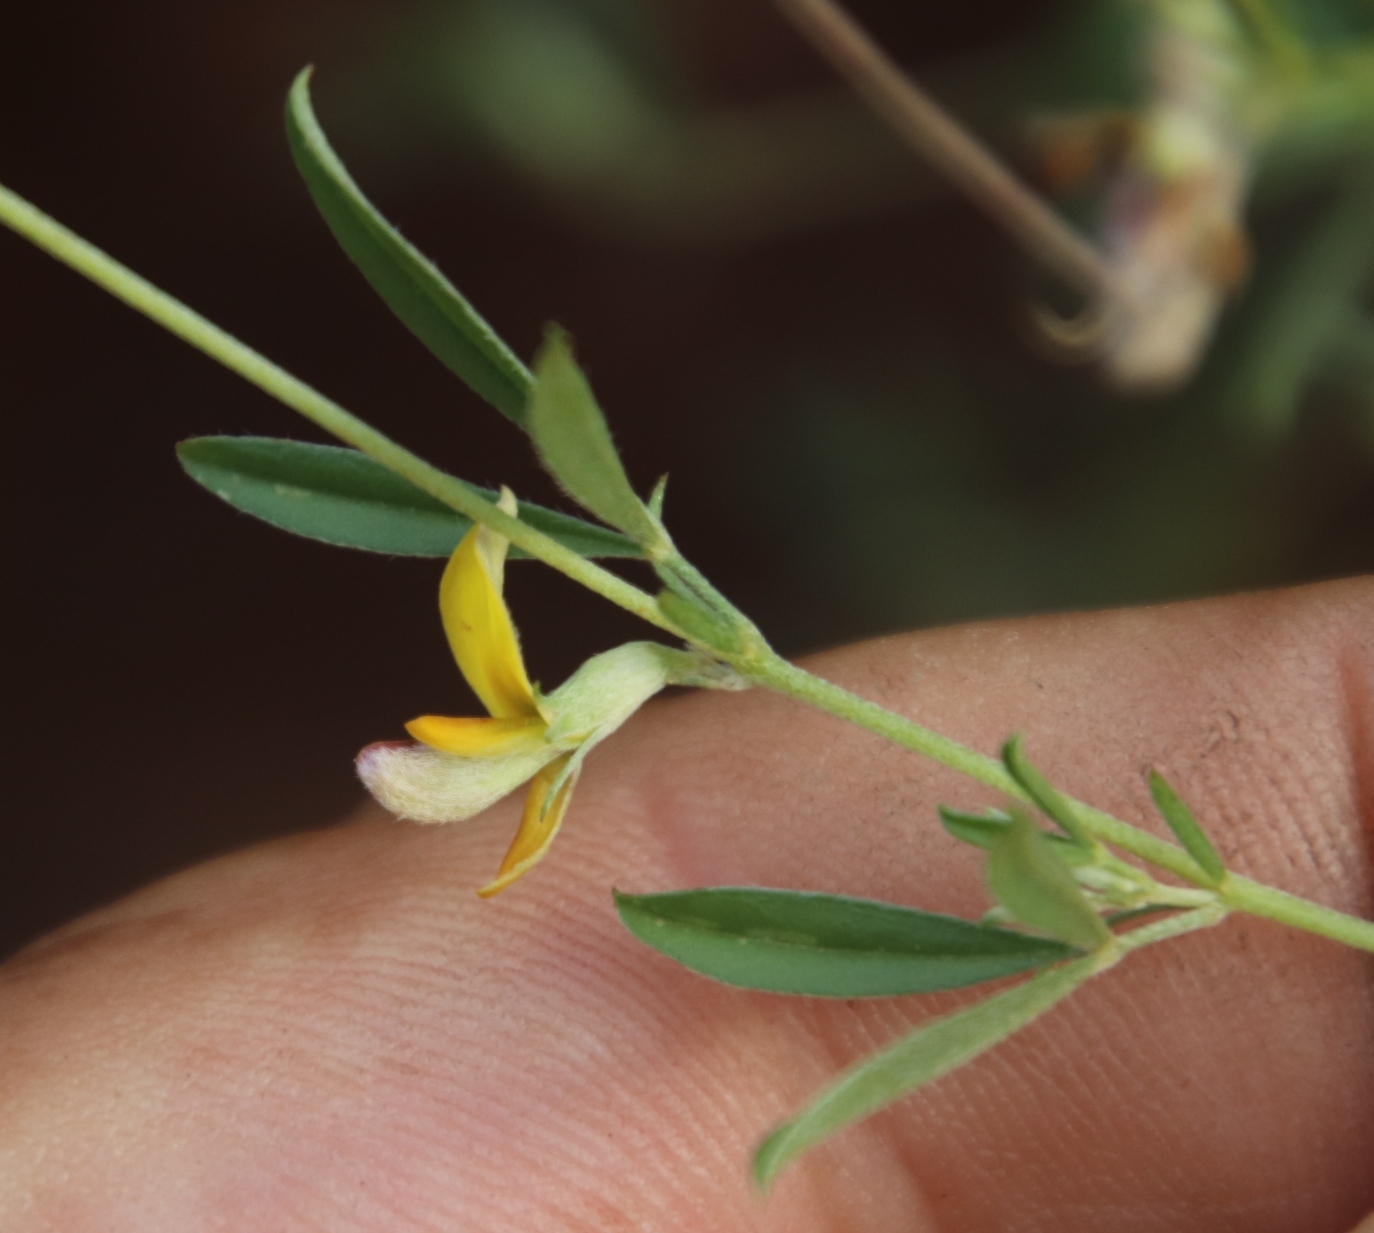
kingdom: Plantae
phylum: Tracheophyta
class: Magnoliopsida
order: Fabales
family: Fabaceae
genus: Dichilus
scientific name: Dichilus reflexus
